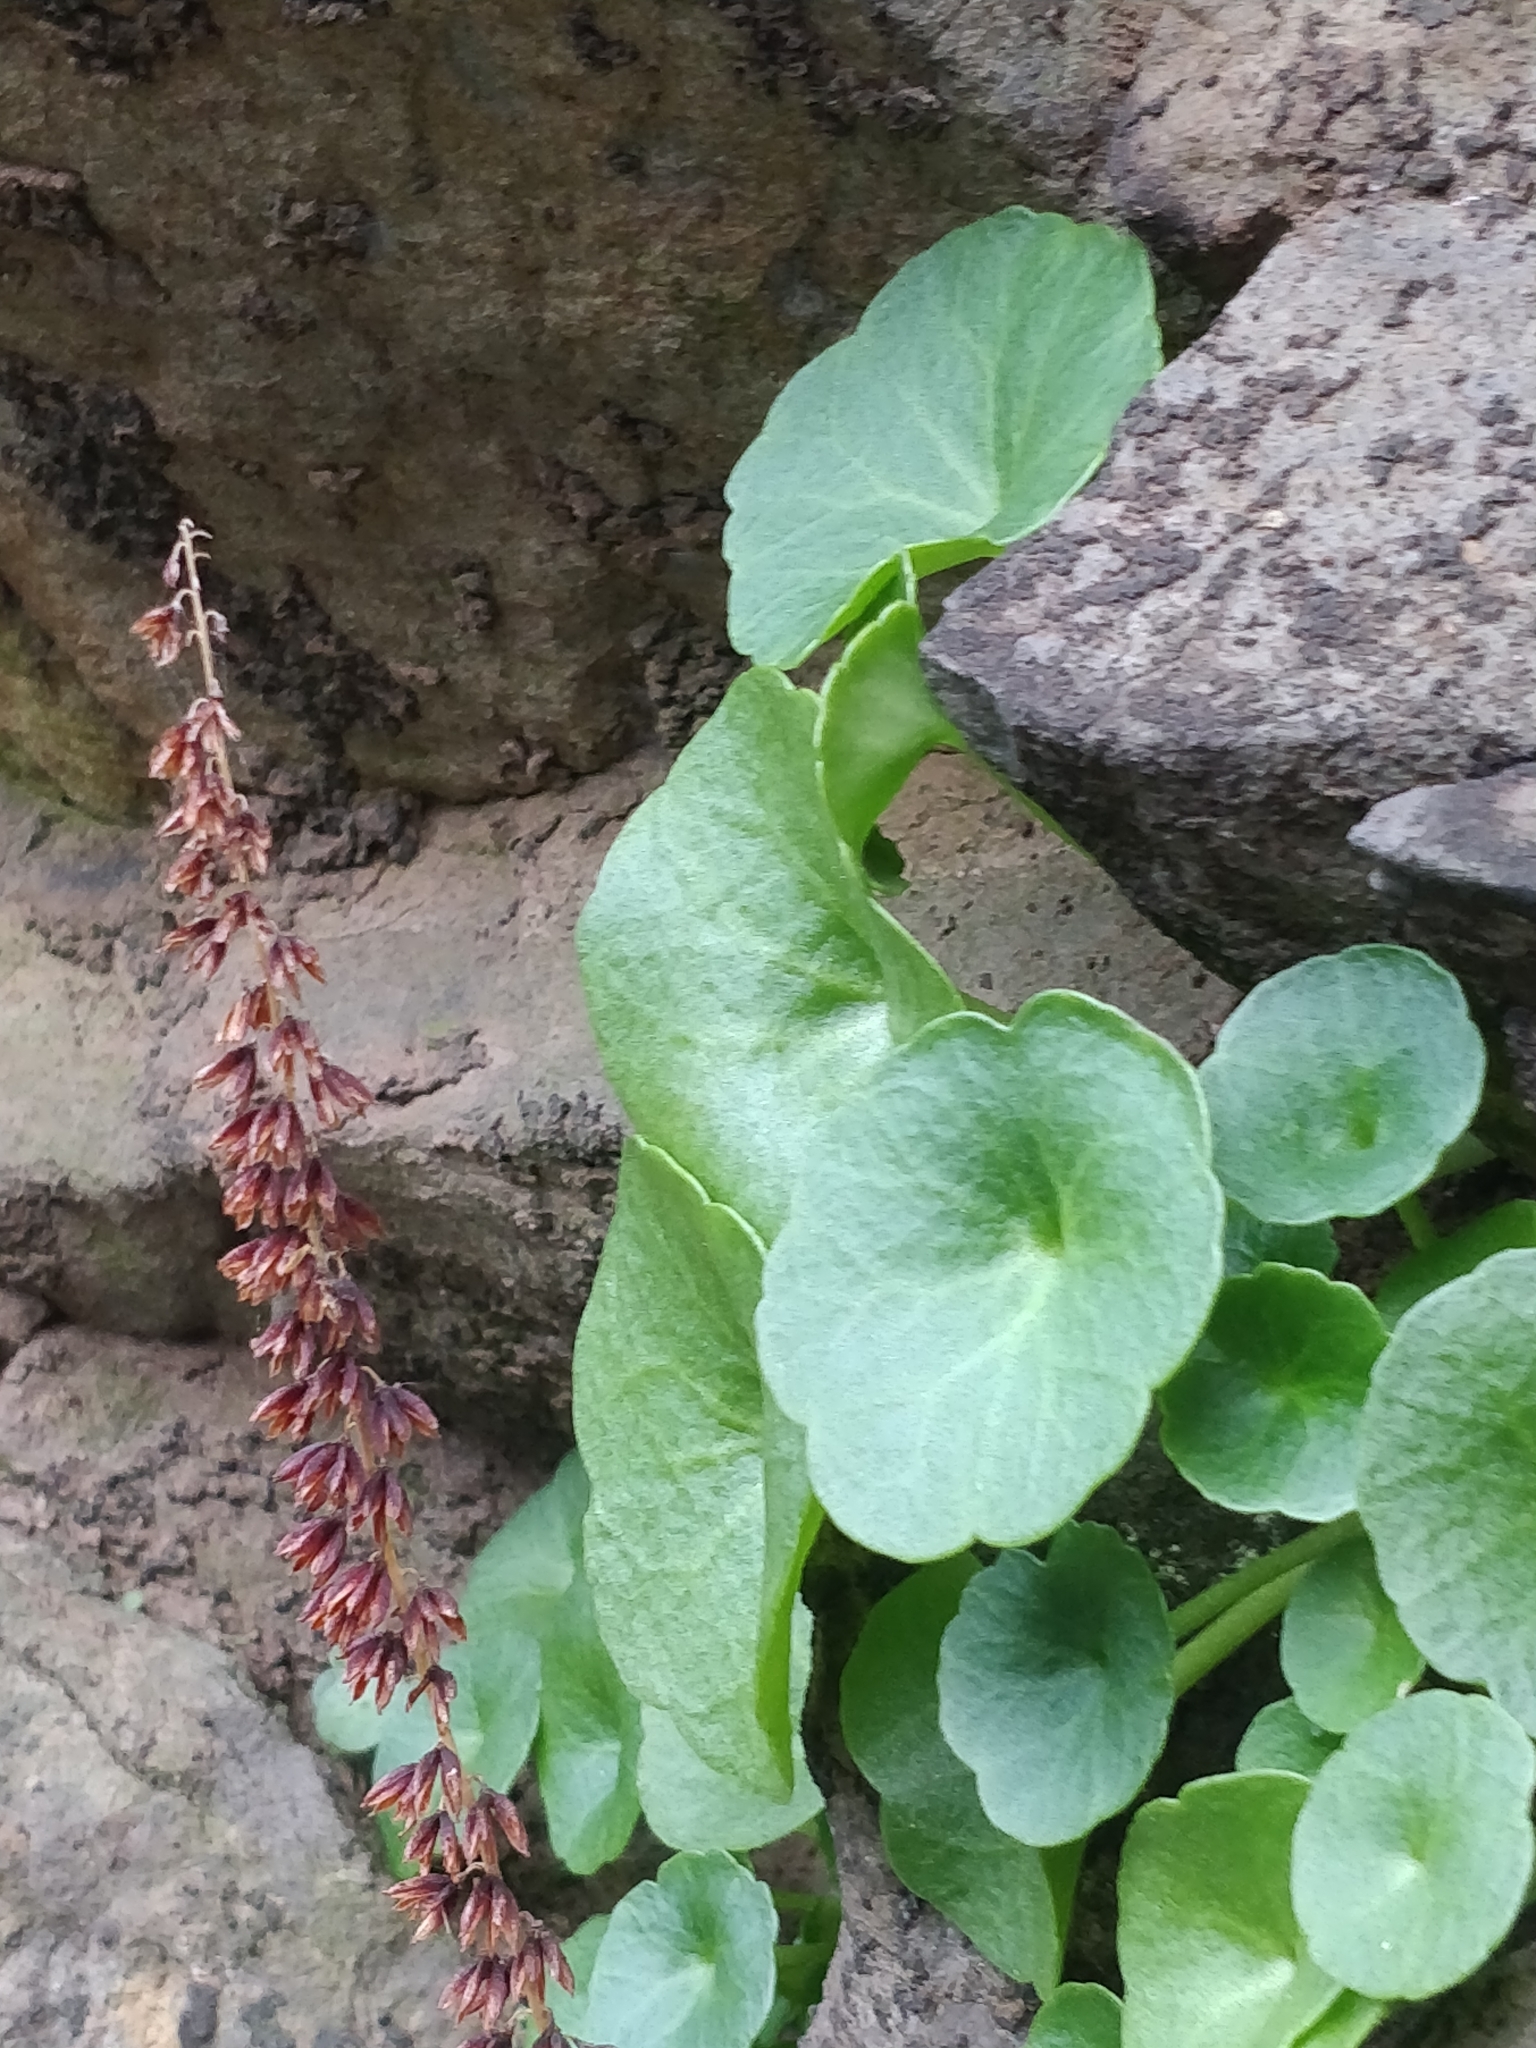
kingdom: Plantae
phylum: Tracheophyta
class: Magnoliopsida
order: Saxifragales
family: Crassulaceae
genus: Umbilicus
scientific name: Umbilicus rupestris
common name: Navelwort
